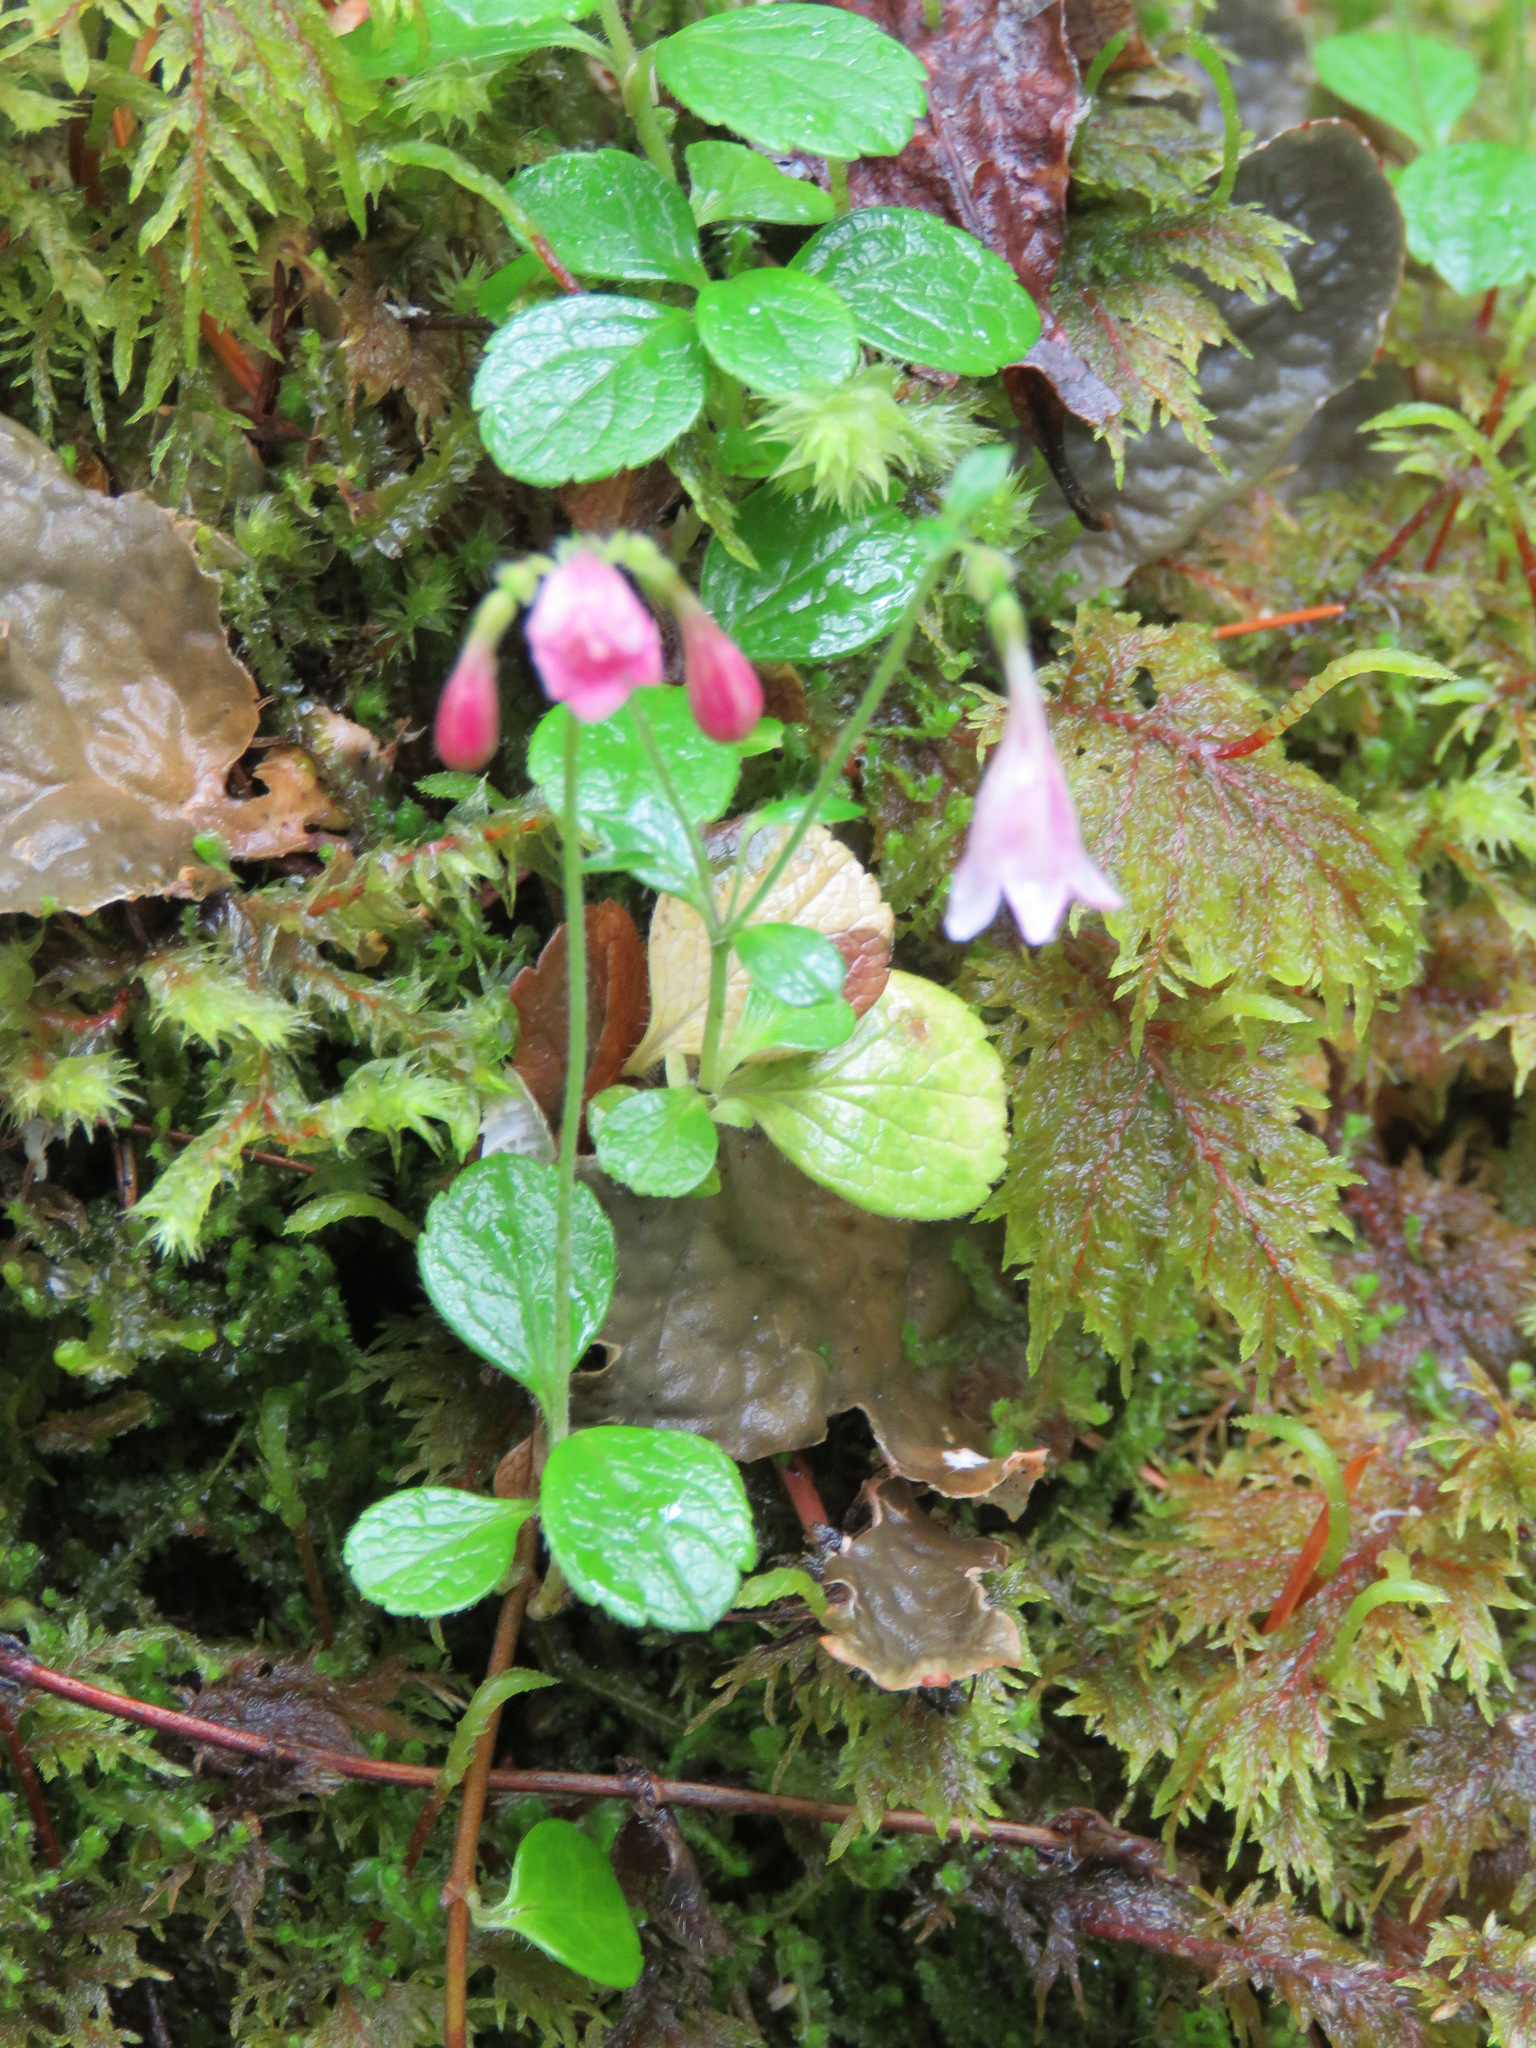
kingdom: Plantae
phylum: Tracheophyta
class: Magnoliopsida
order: Dipsacales
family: Caprifoliaceae
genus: Linnaea
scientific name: Linnaea borealis
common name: Twinflower
